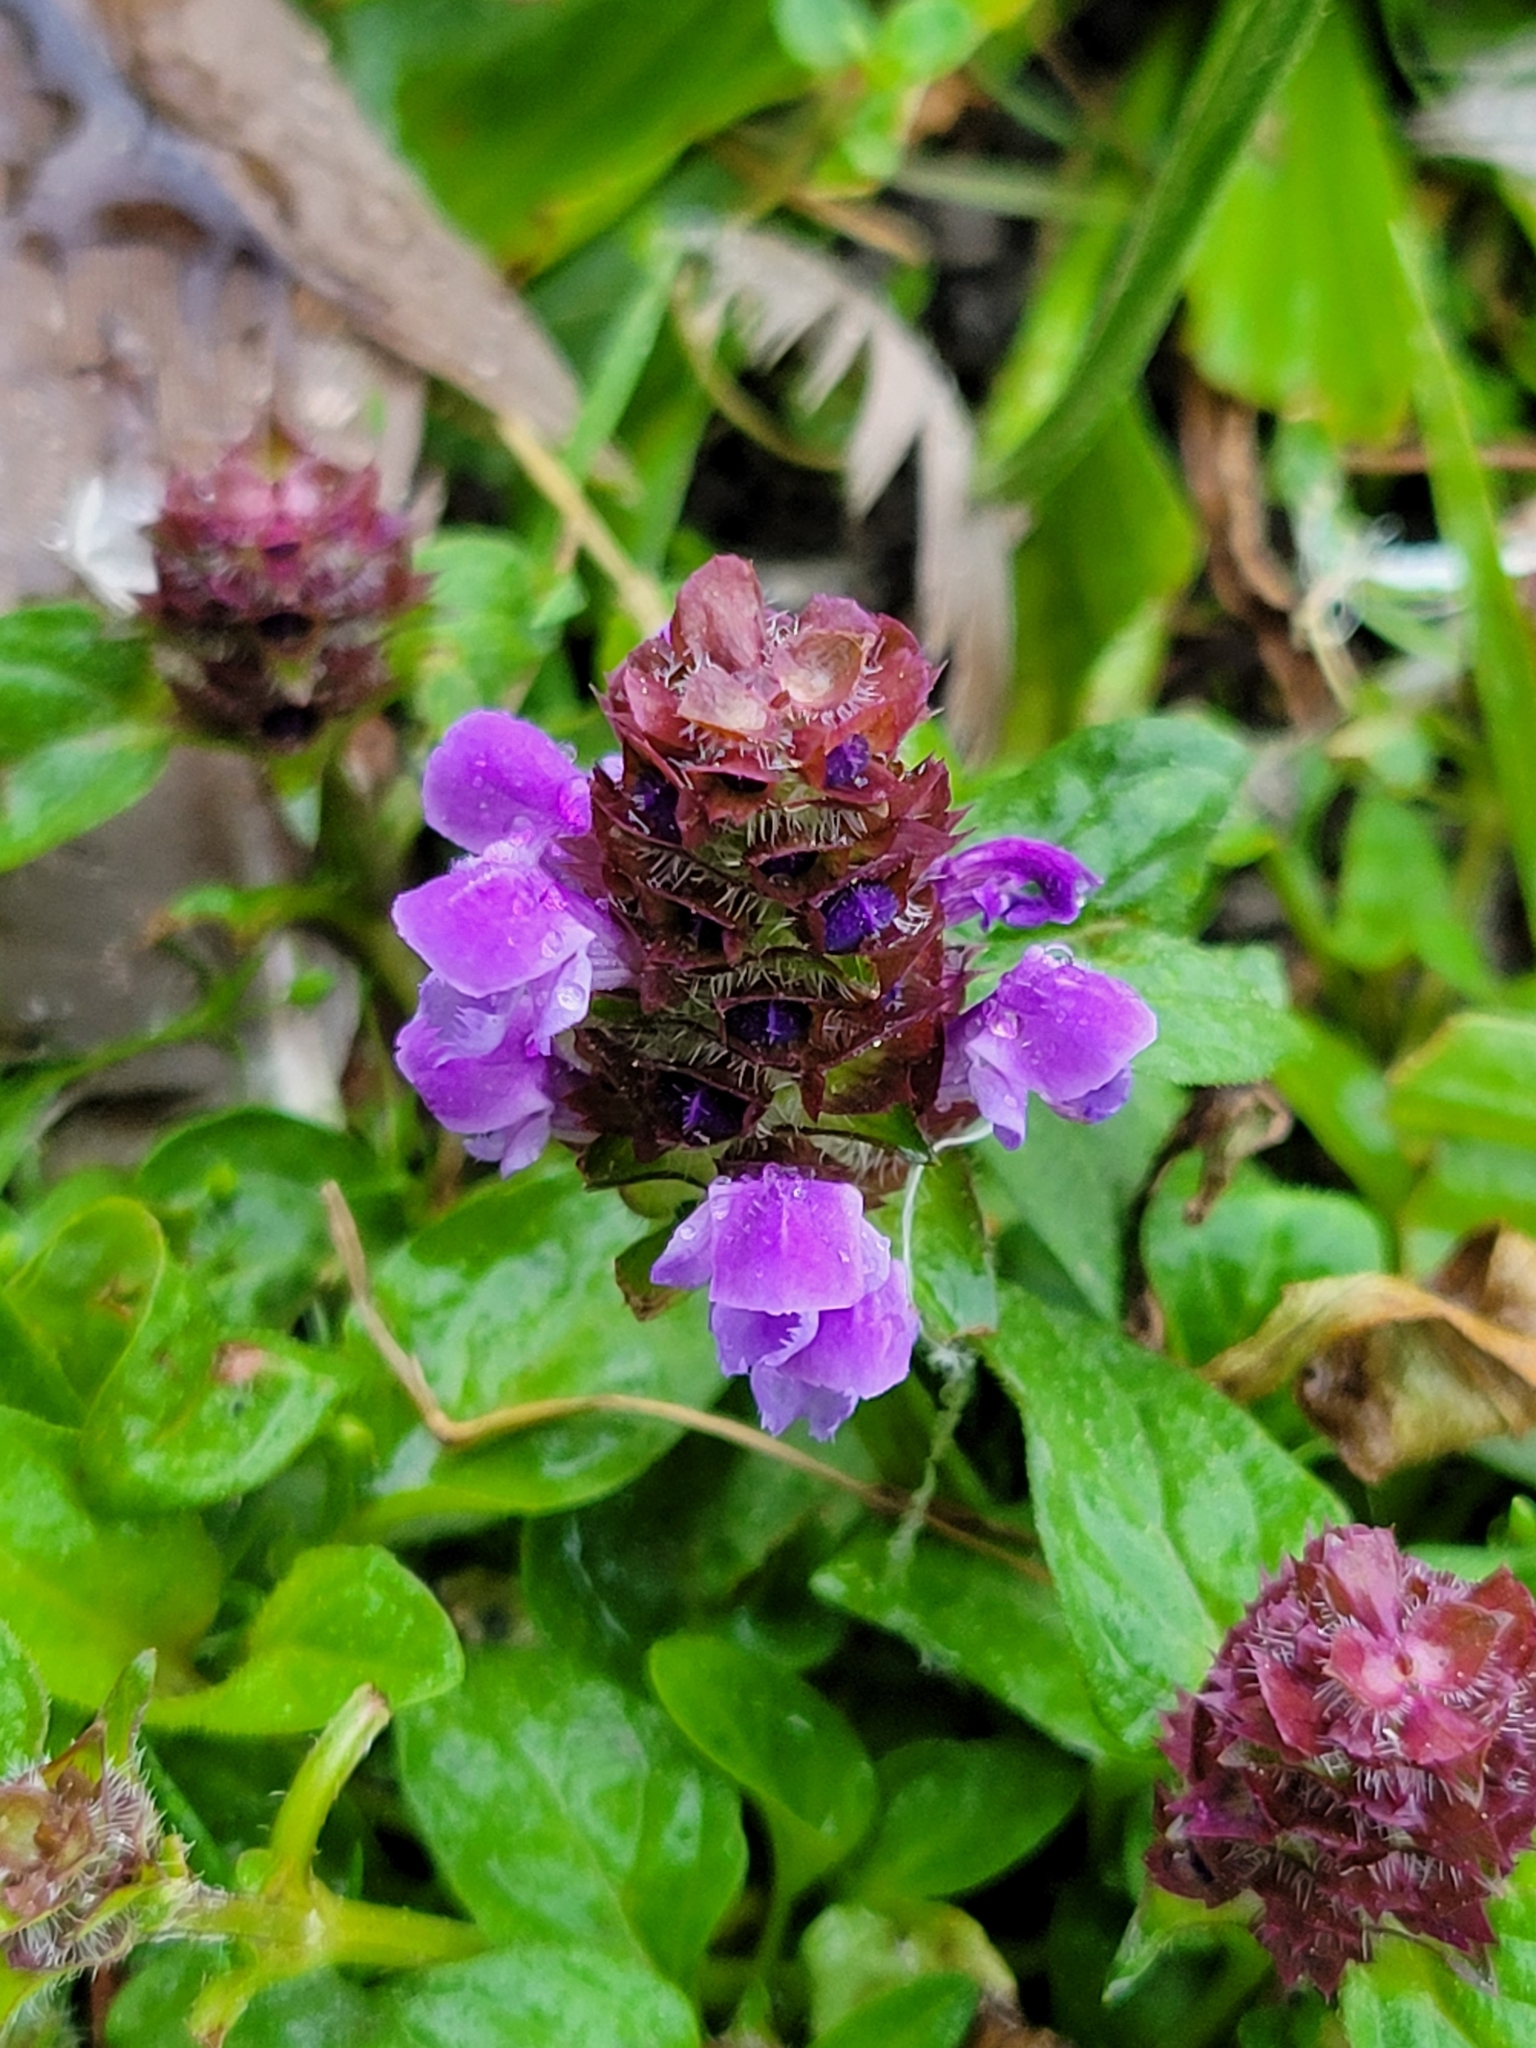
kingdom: Plantae
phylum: Tracheophyta
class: Magnoliopsida
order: Lamiales
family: Lamiaceae
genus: Prunella
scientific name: Prunella vulgaris
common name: Heal-all
